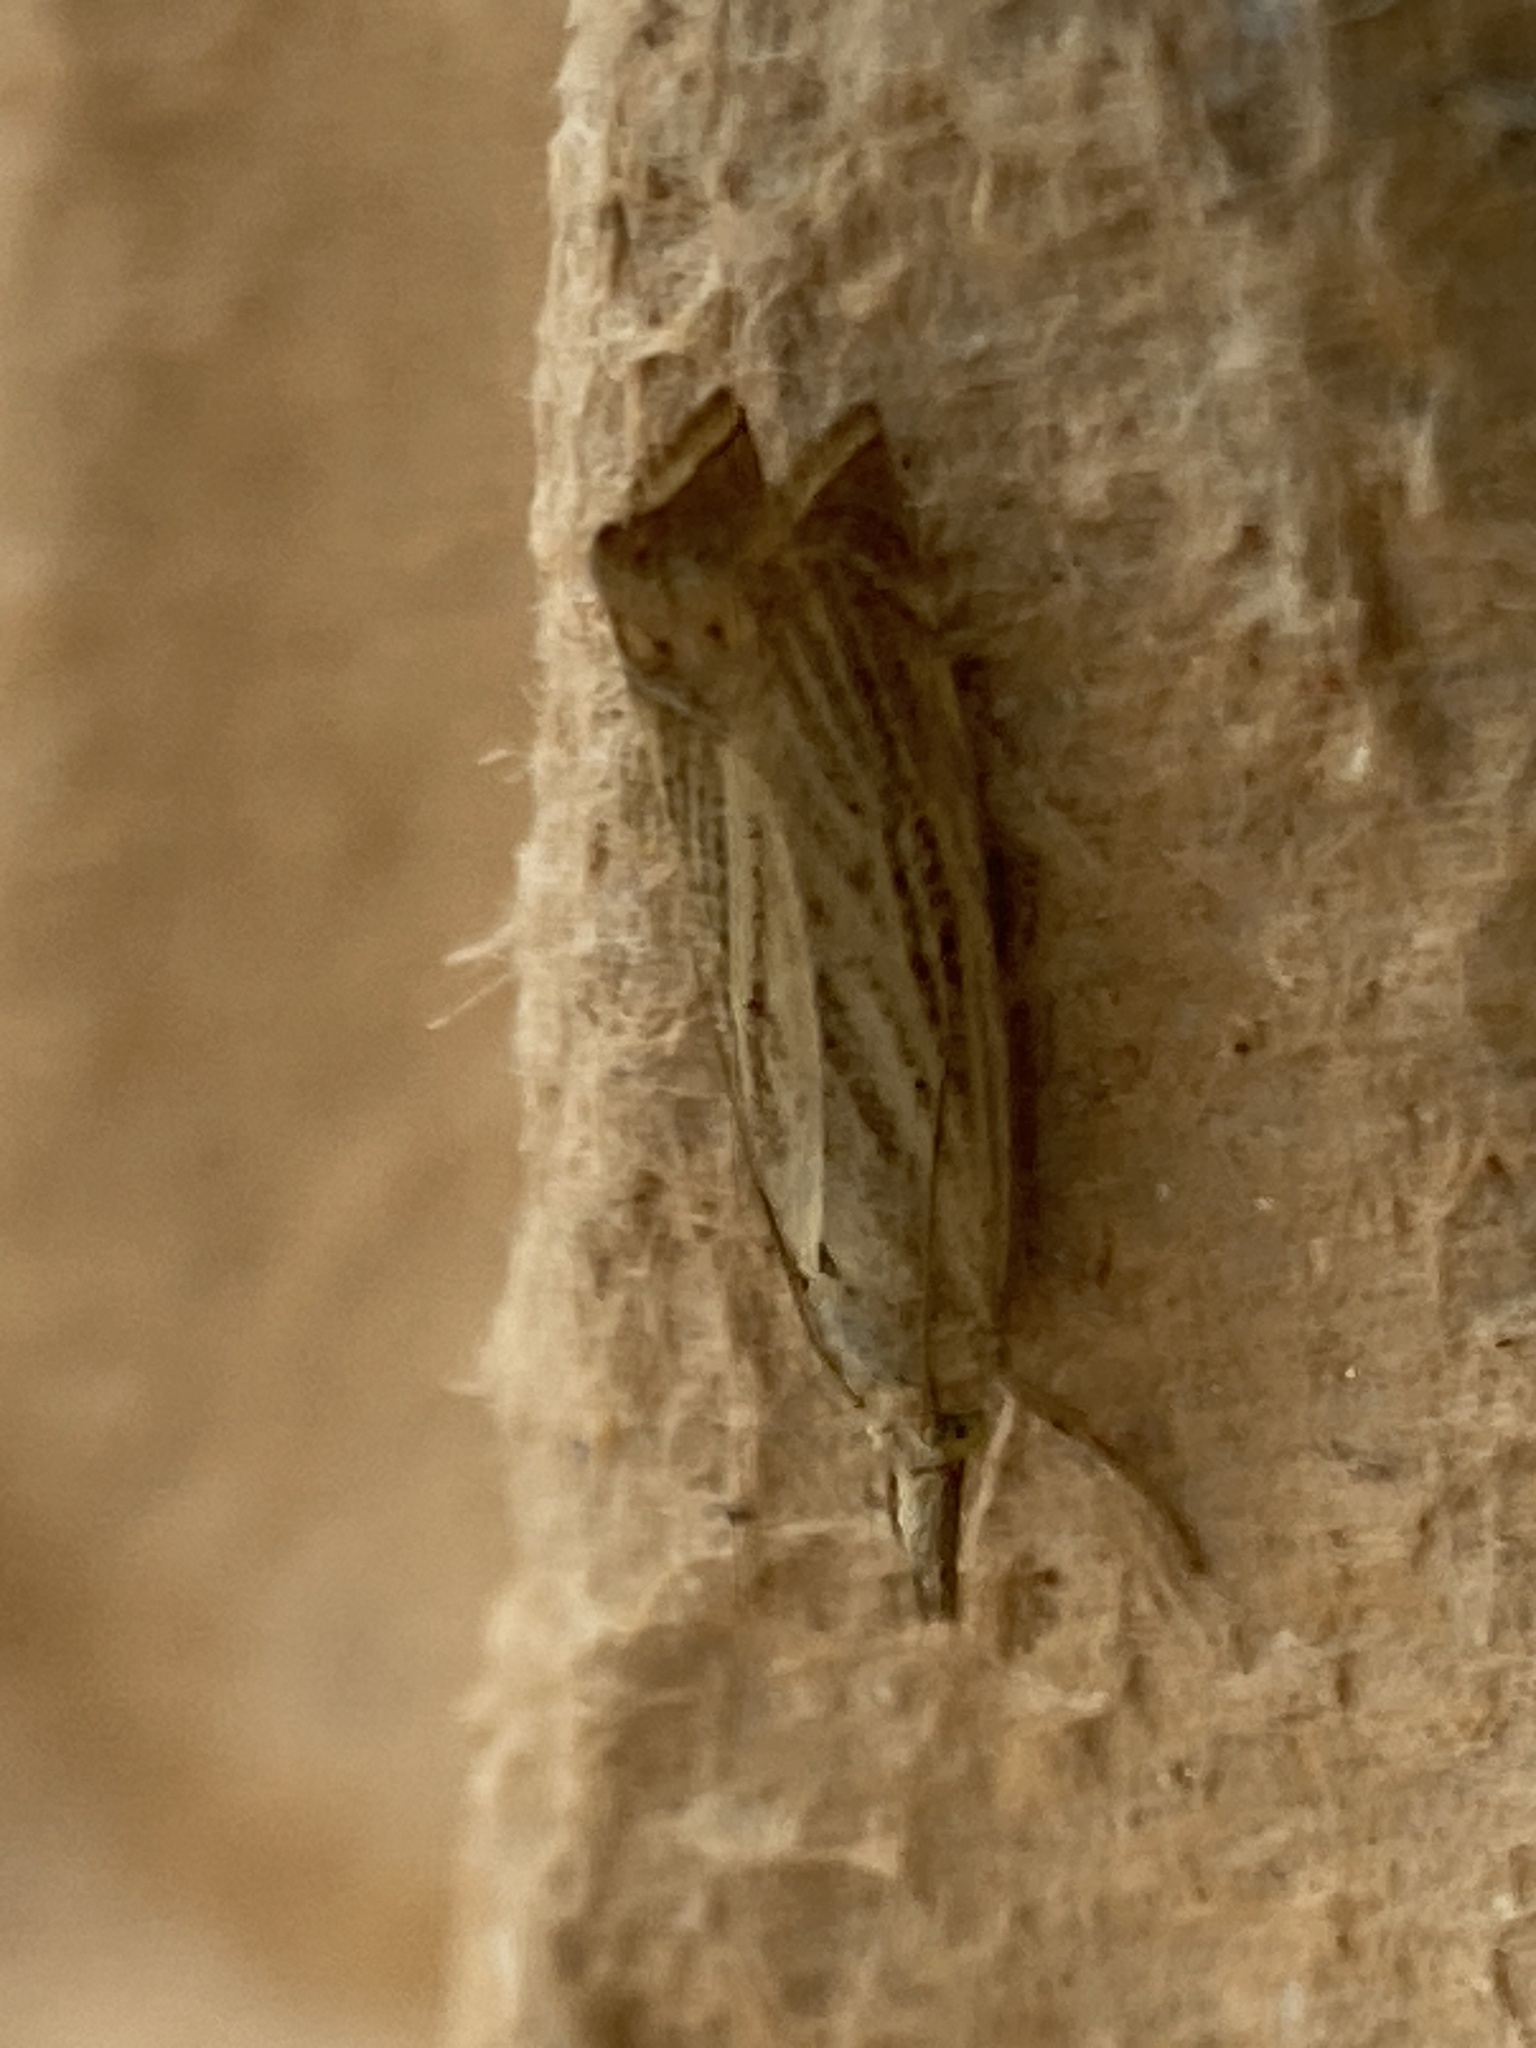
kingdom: Animalia
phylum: Arthropoda
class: Insecta
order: Lepidoptera
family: Crambidae
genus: Chrysoteuchia
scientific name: Chrysoteuchia culmella
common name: Garden grass-veneer
